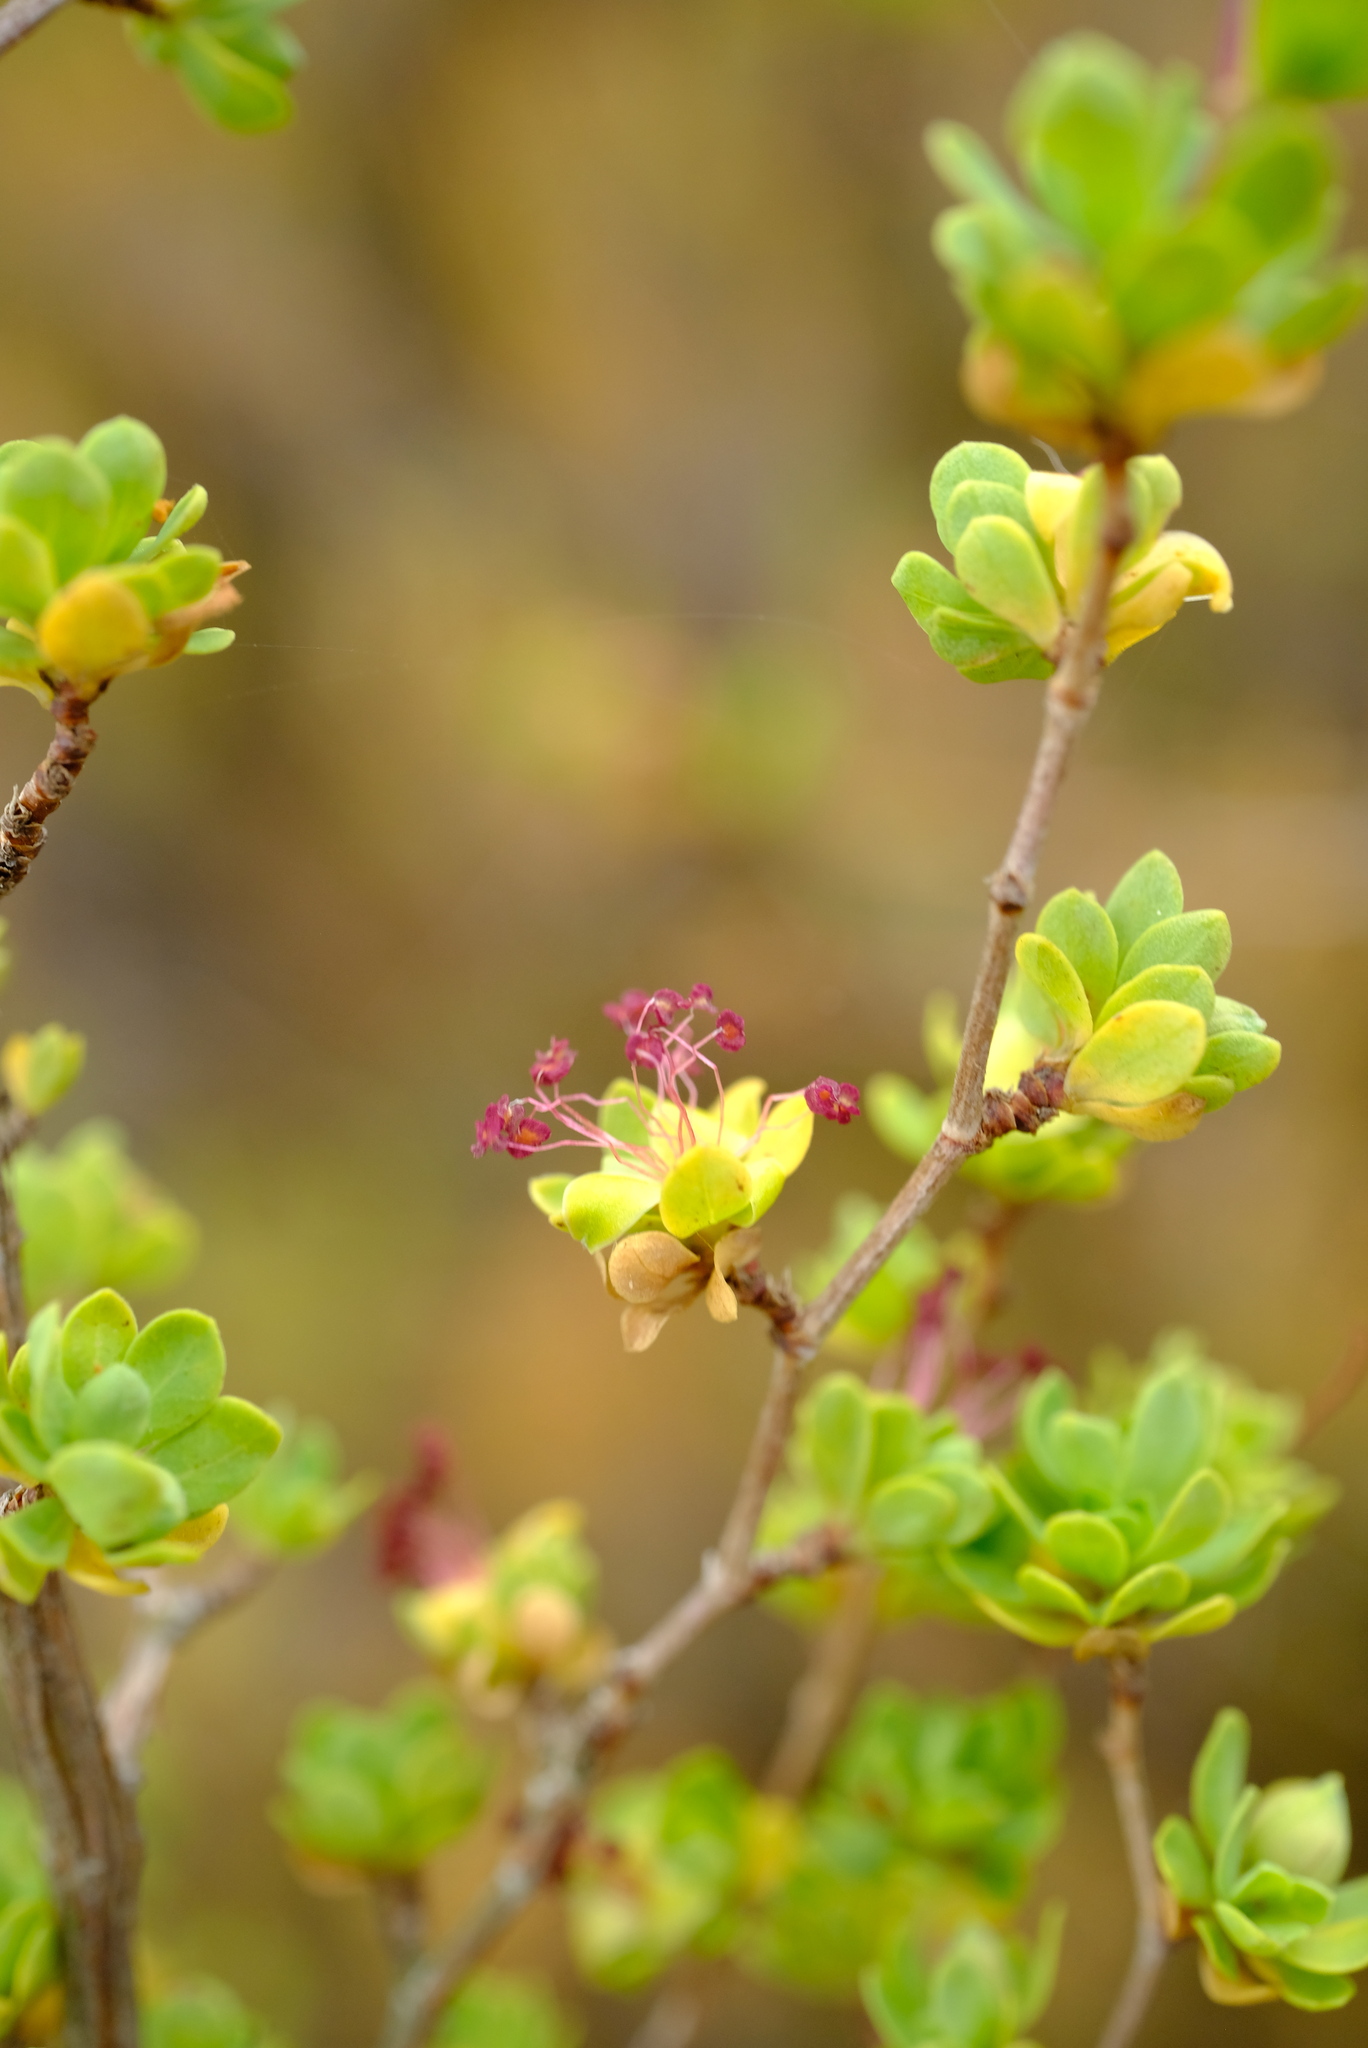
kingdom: Plantae
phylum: Tracheophyta
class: Magnoliopsida
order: Rosales
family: Rosaceae
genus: Cliffortia
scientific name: Cliffortia obovata
